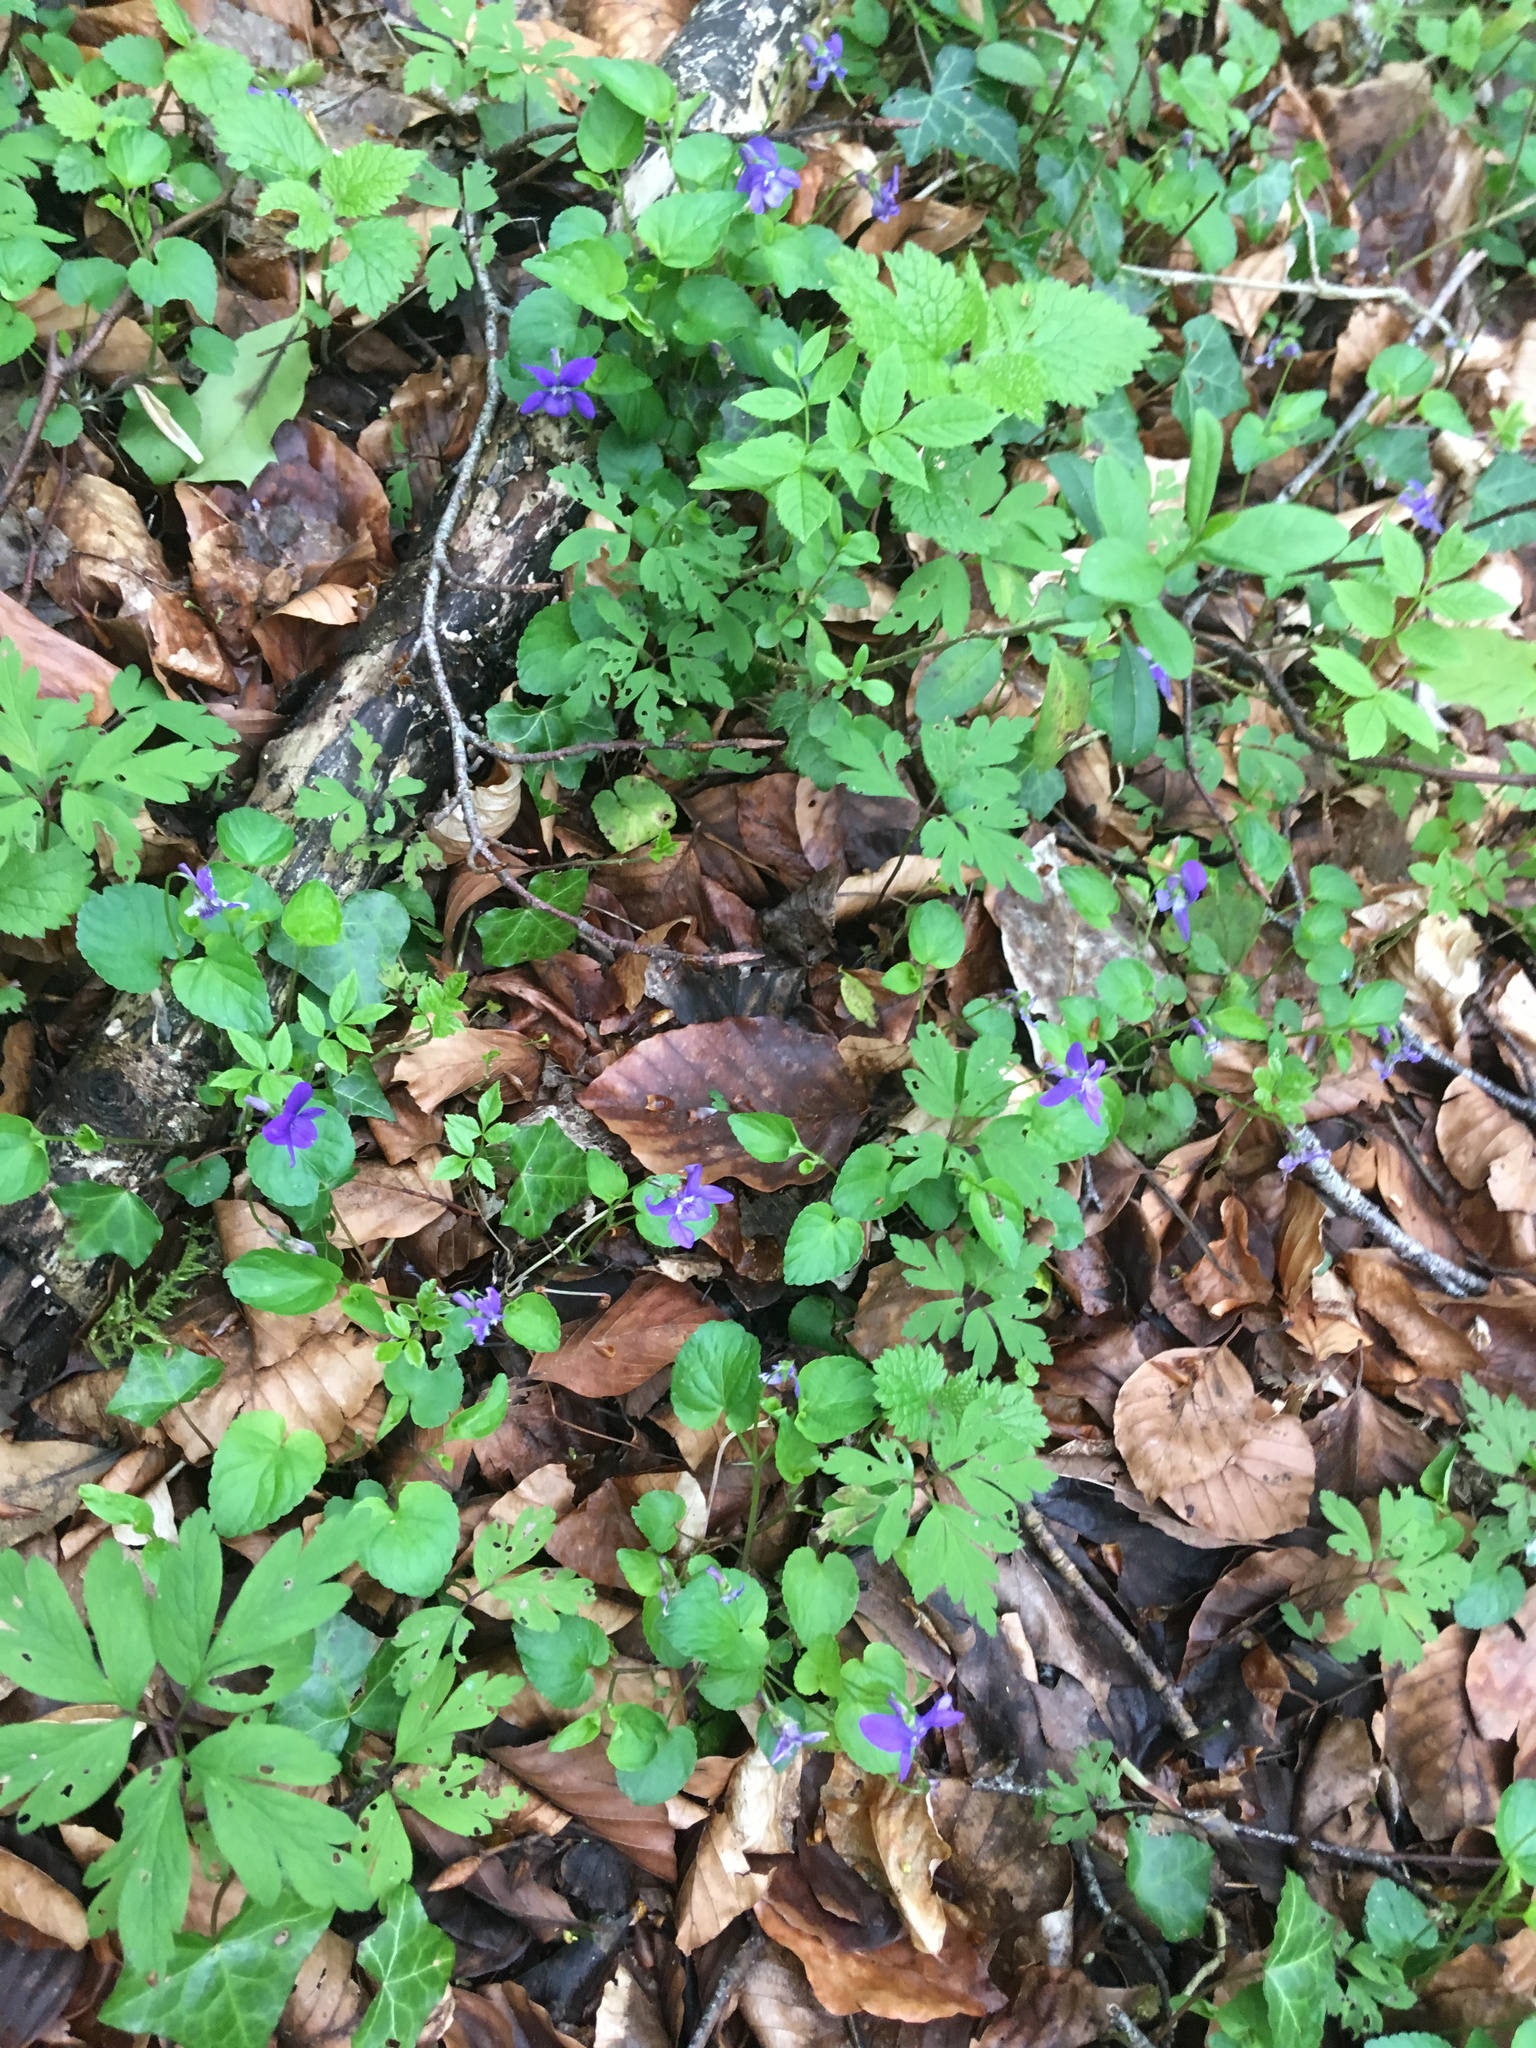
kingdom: Plantae
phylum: Tracheophyta
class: Magnoliopsida
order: Malpighiales
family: Violaceae
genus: Viola
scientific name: Viola
